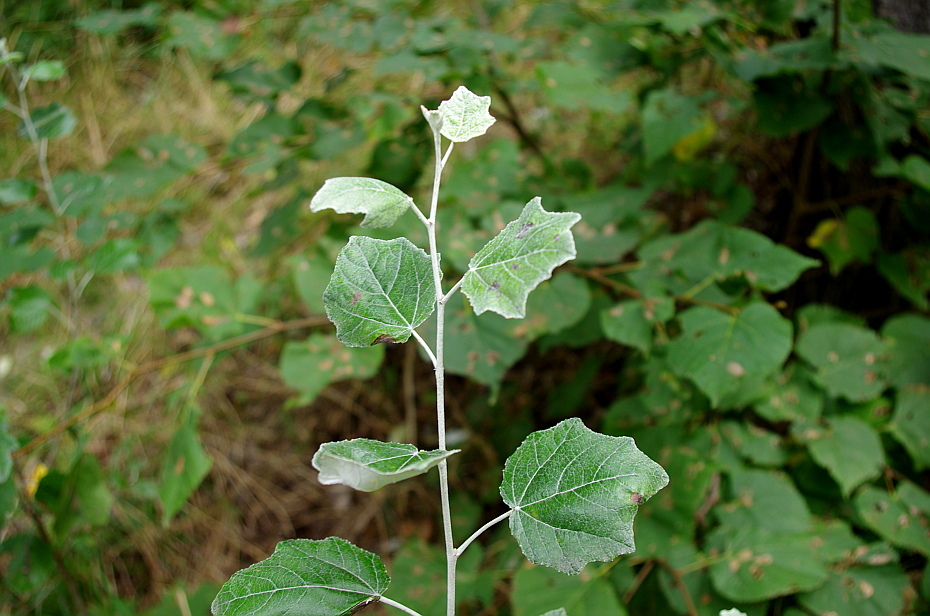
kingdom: Plantae
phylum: Tracheophyta
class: Magnoliopsida
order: Malpighiales
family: Salicaceae
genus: Populus
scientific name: Populus alba
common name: White poplar
